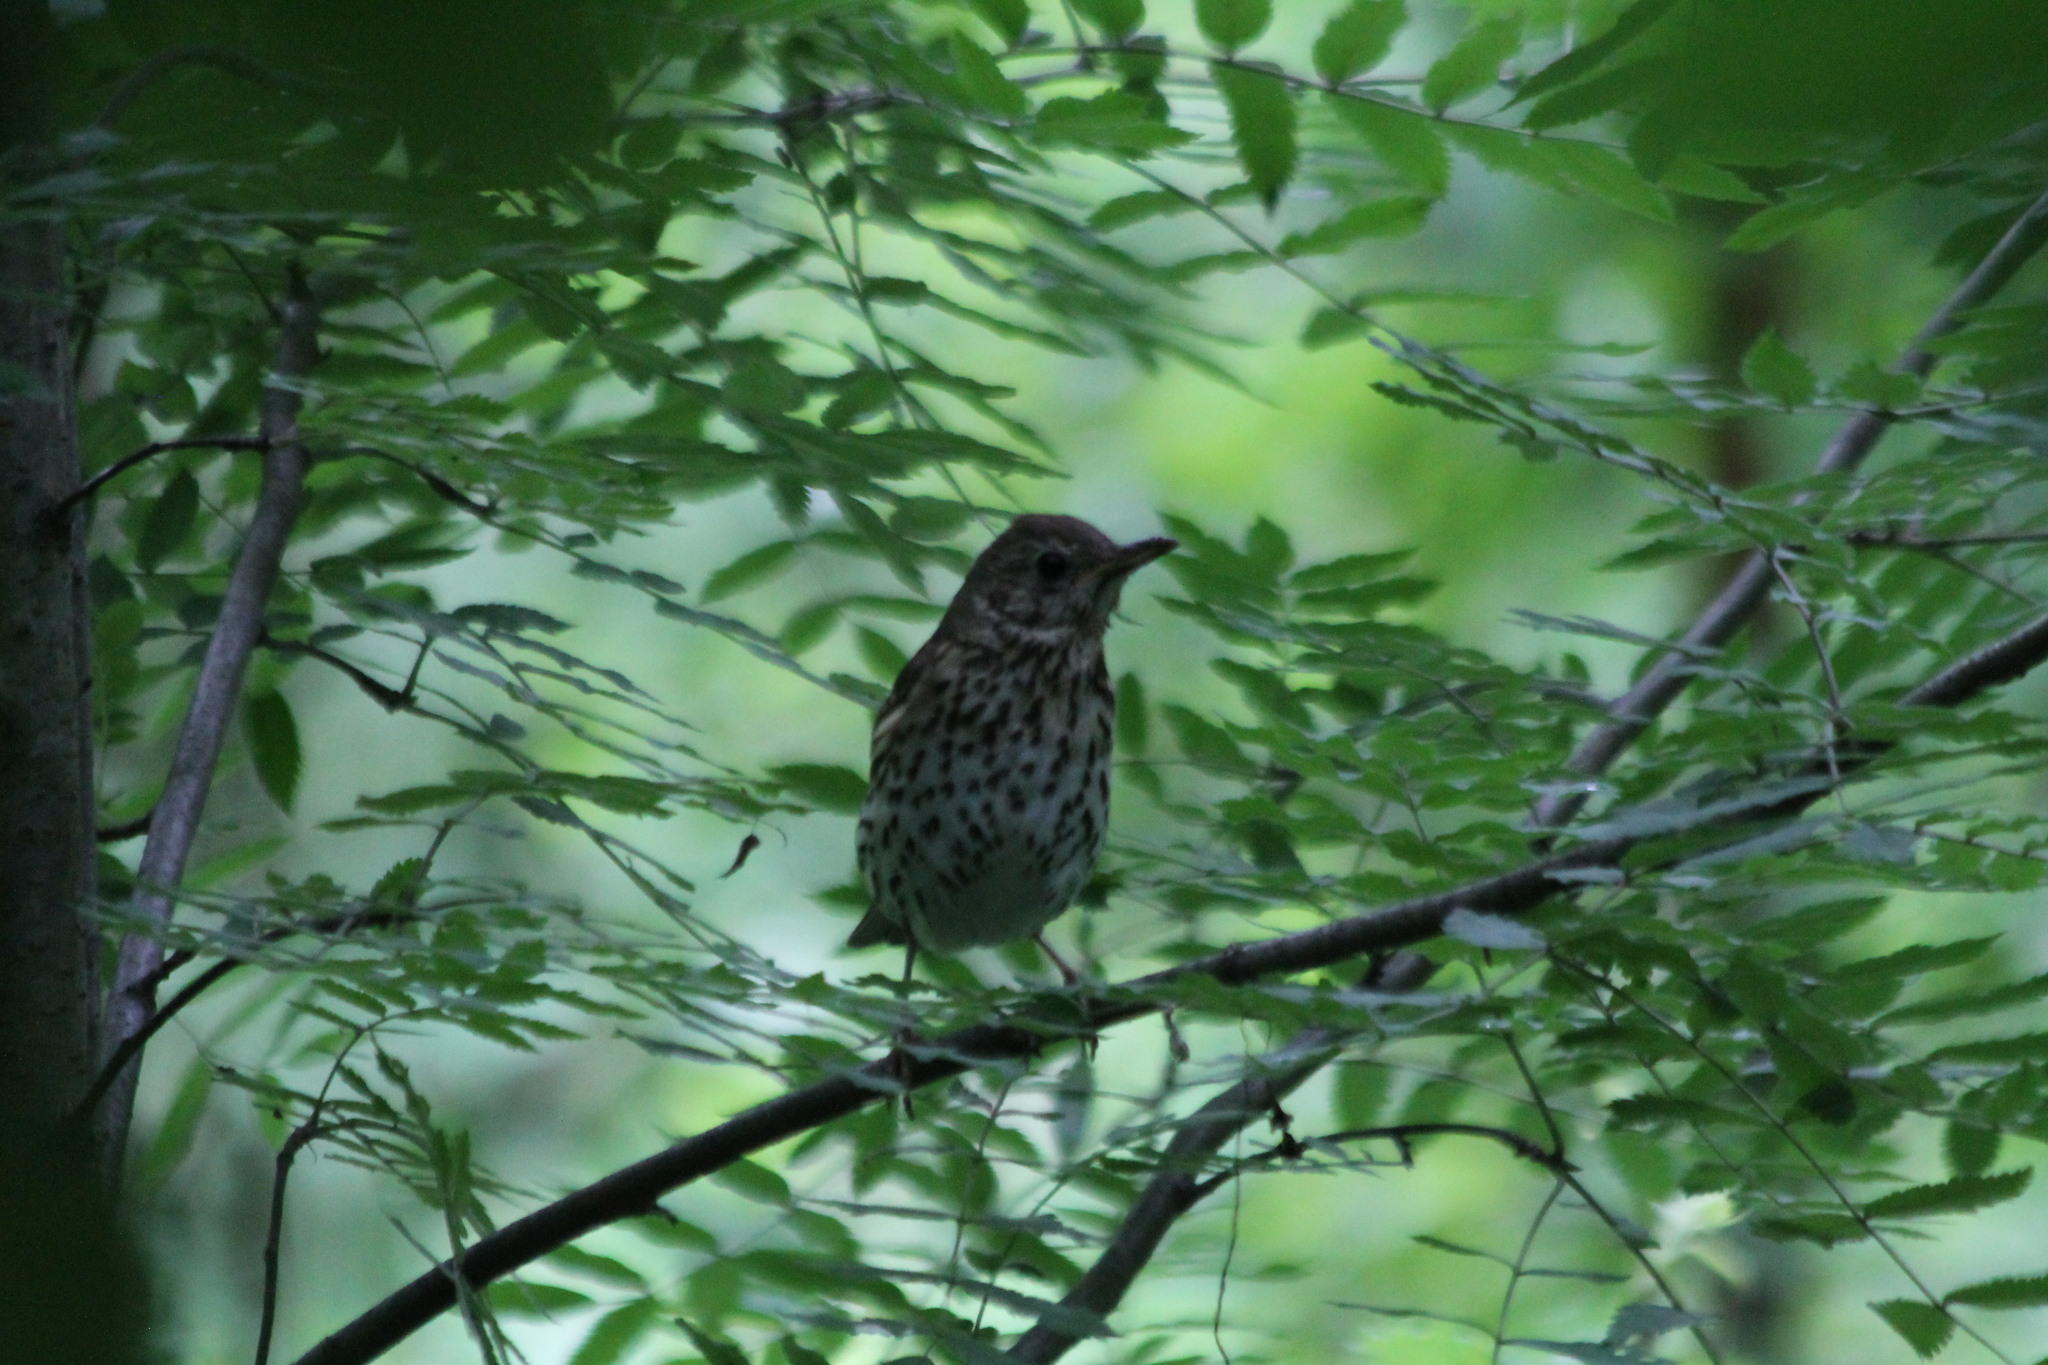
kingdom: Animalia
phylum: Chordata
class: Aves
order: Passeriformes
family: Turdidae
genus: Turdus
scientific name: Turdus philomelos
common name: Song thrush
